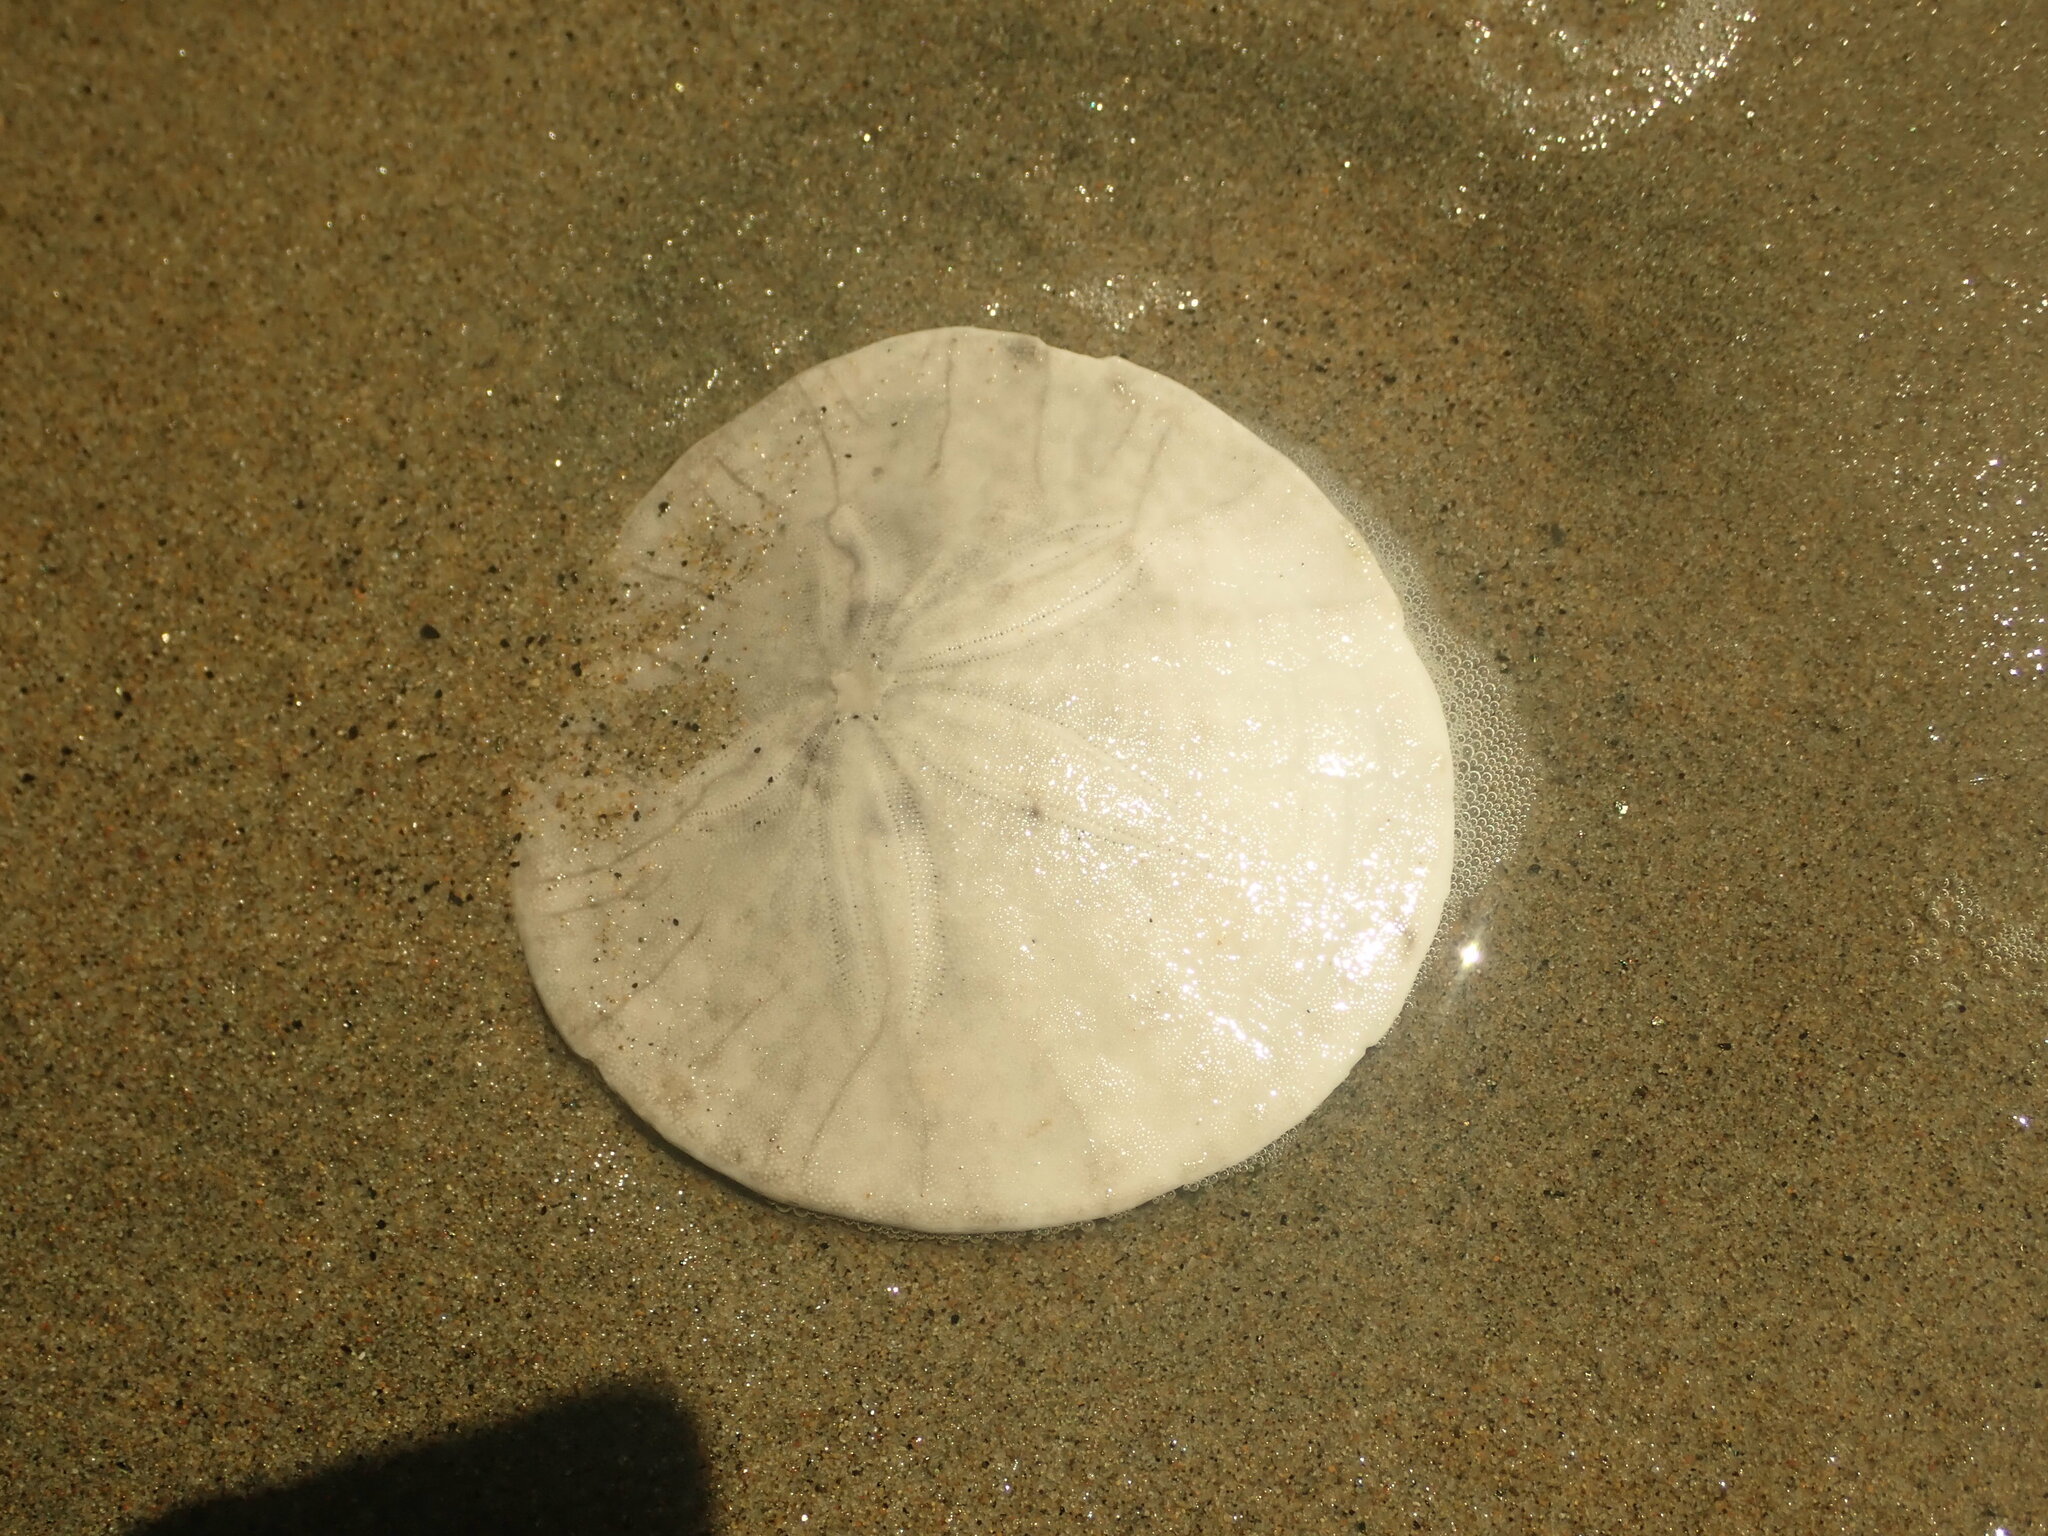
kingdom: Animalia
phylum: Echinodermata
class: Echinoidea
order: Echinolampadacea
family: Dendrasteridae
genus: Dendraster
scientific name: Dendraster excentricus
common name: Eccentric sand dollar sea urchin
